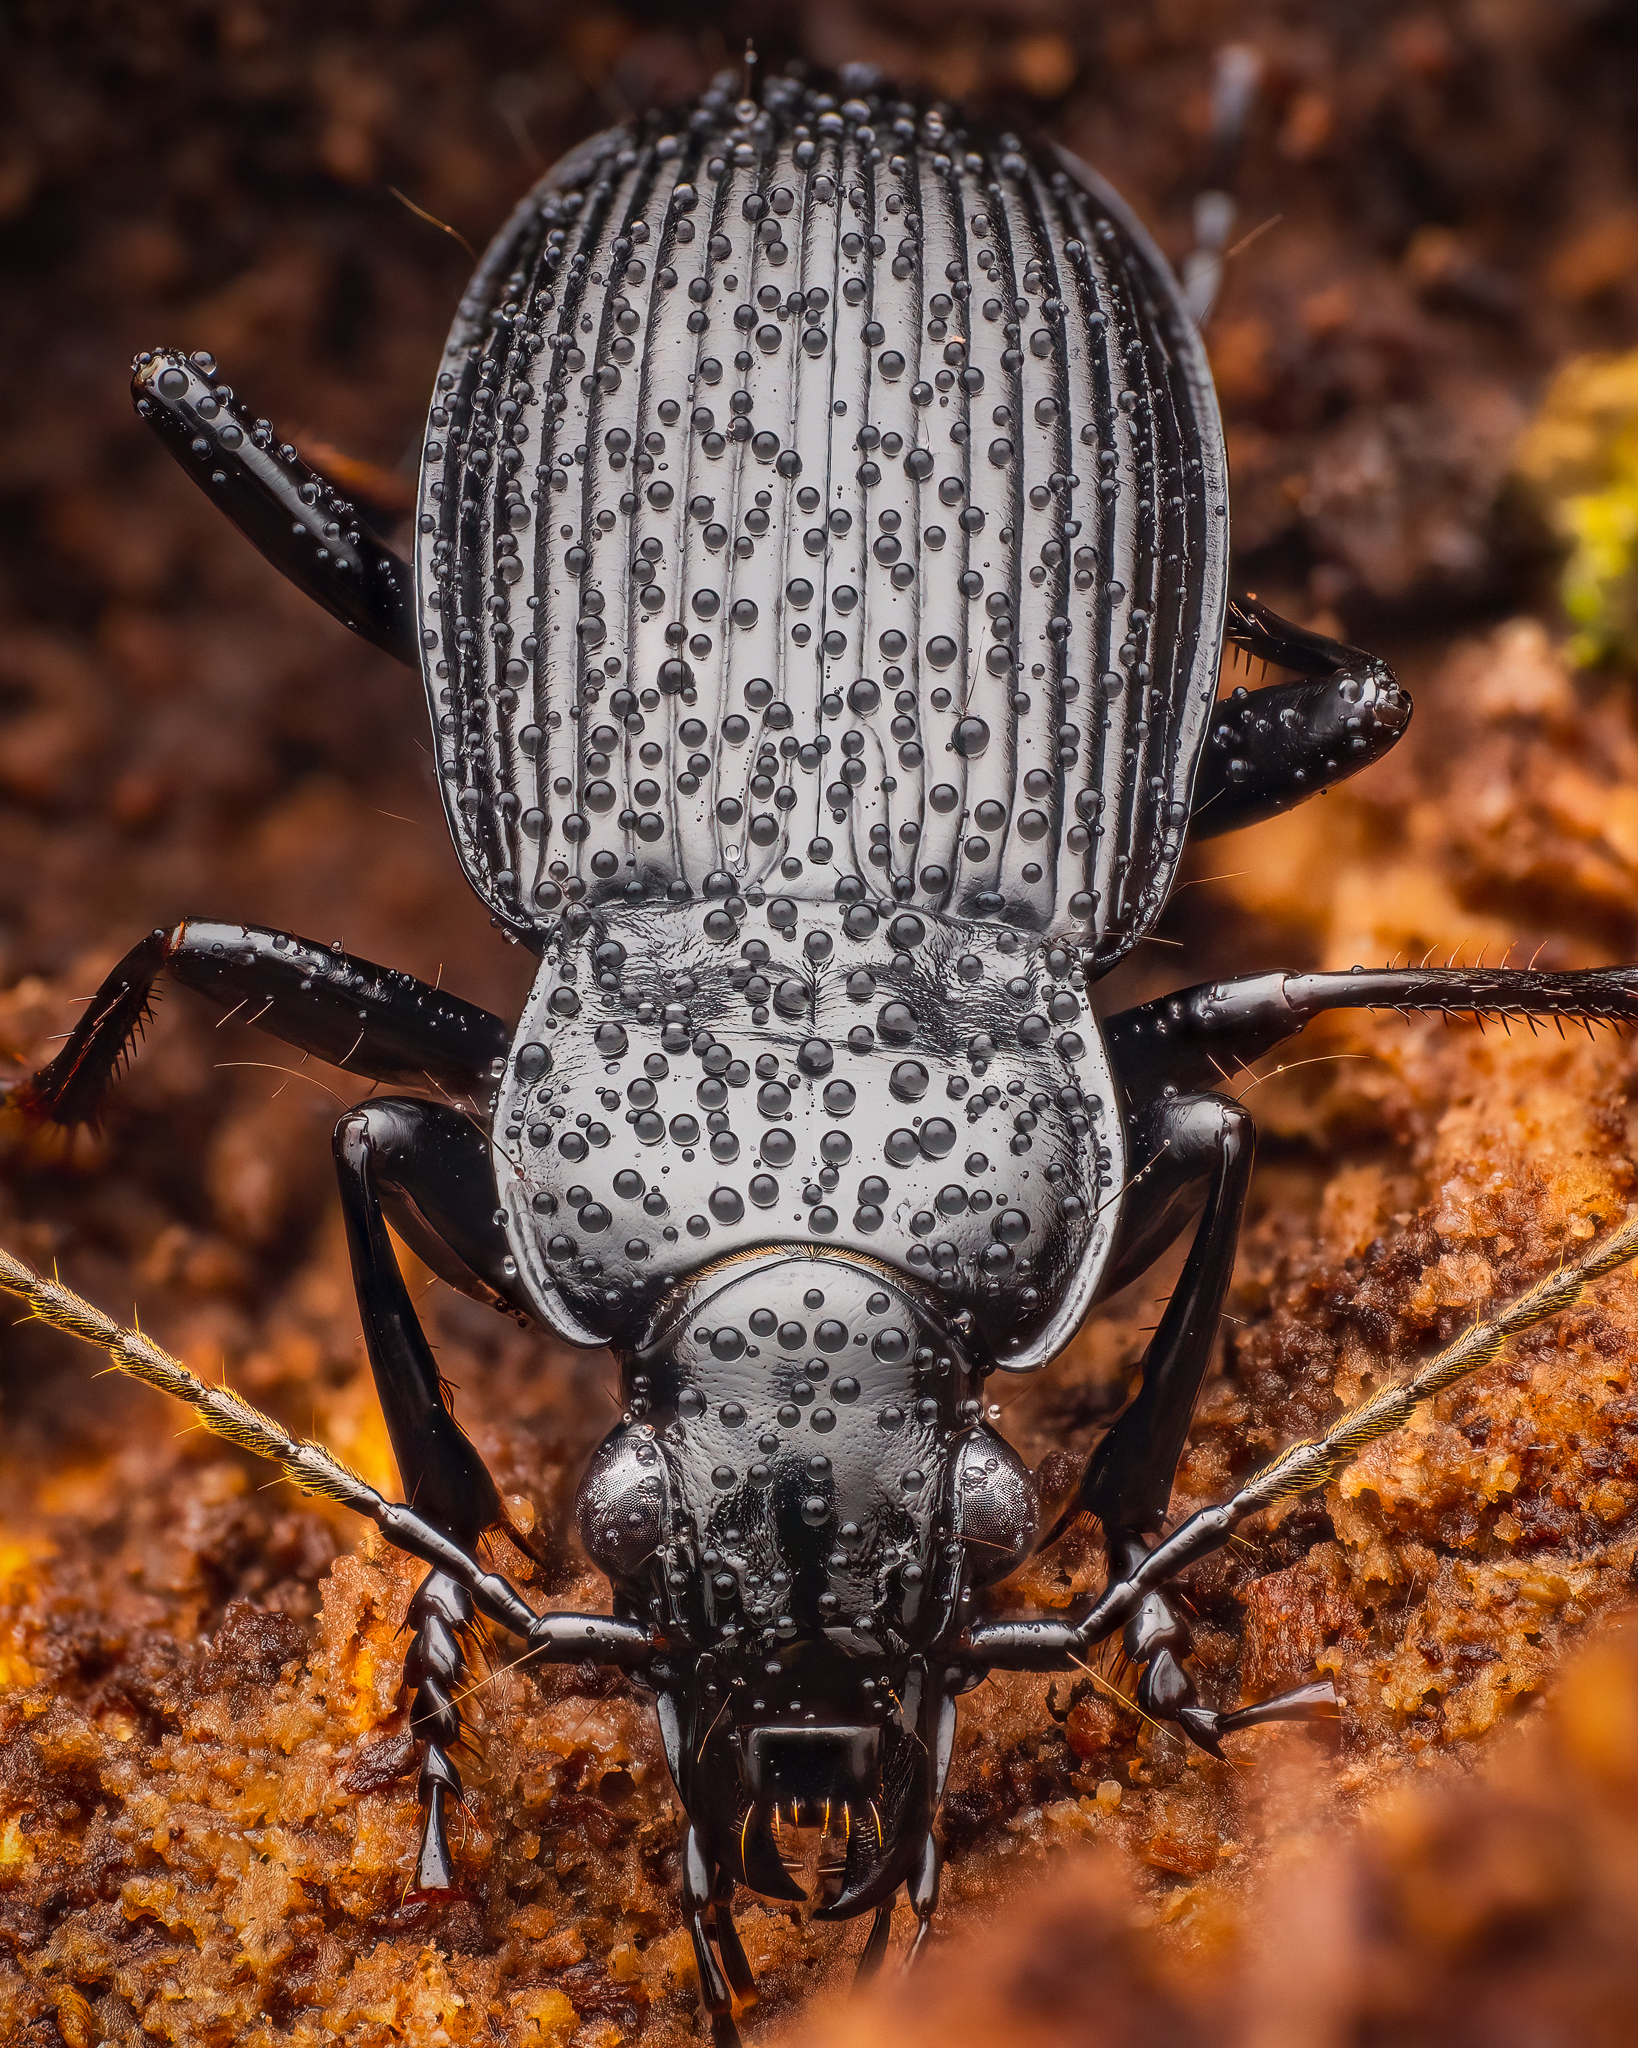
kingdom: Animalia
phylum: Arthropoda
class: Insecta
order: Coleoptera
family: Carabidae
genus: Pterostichus
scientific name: Pterostichus niger
